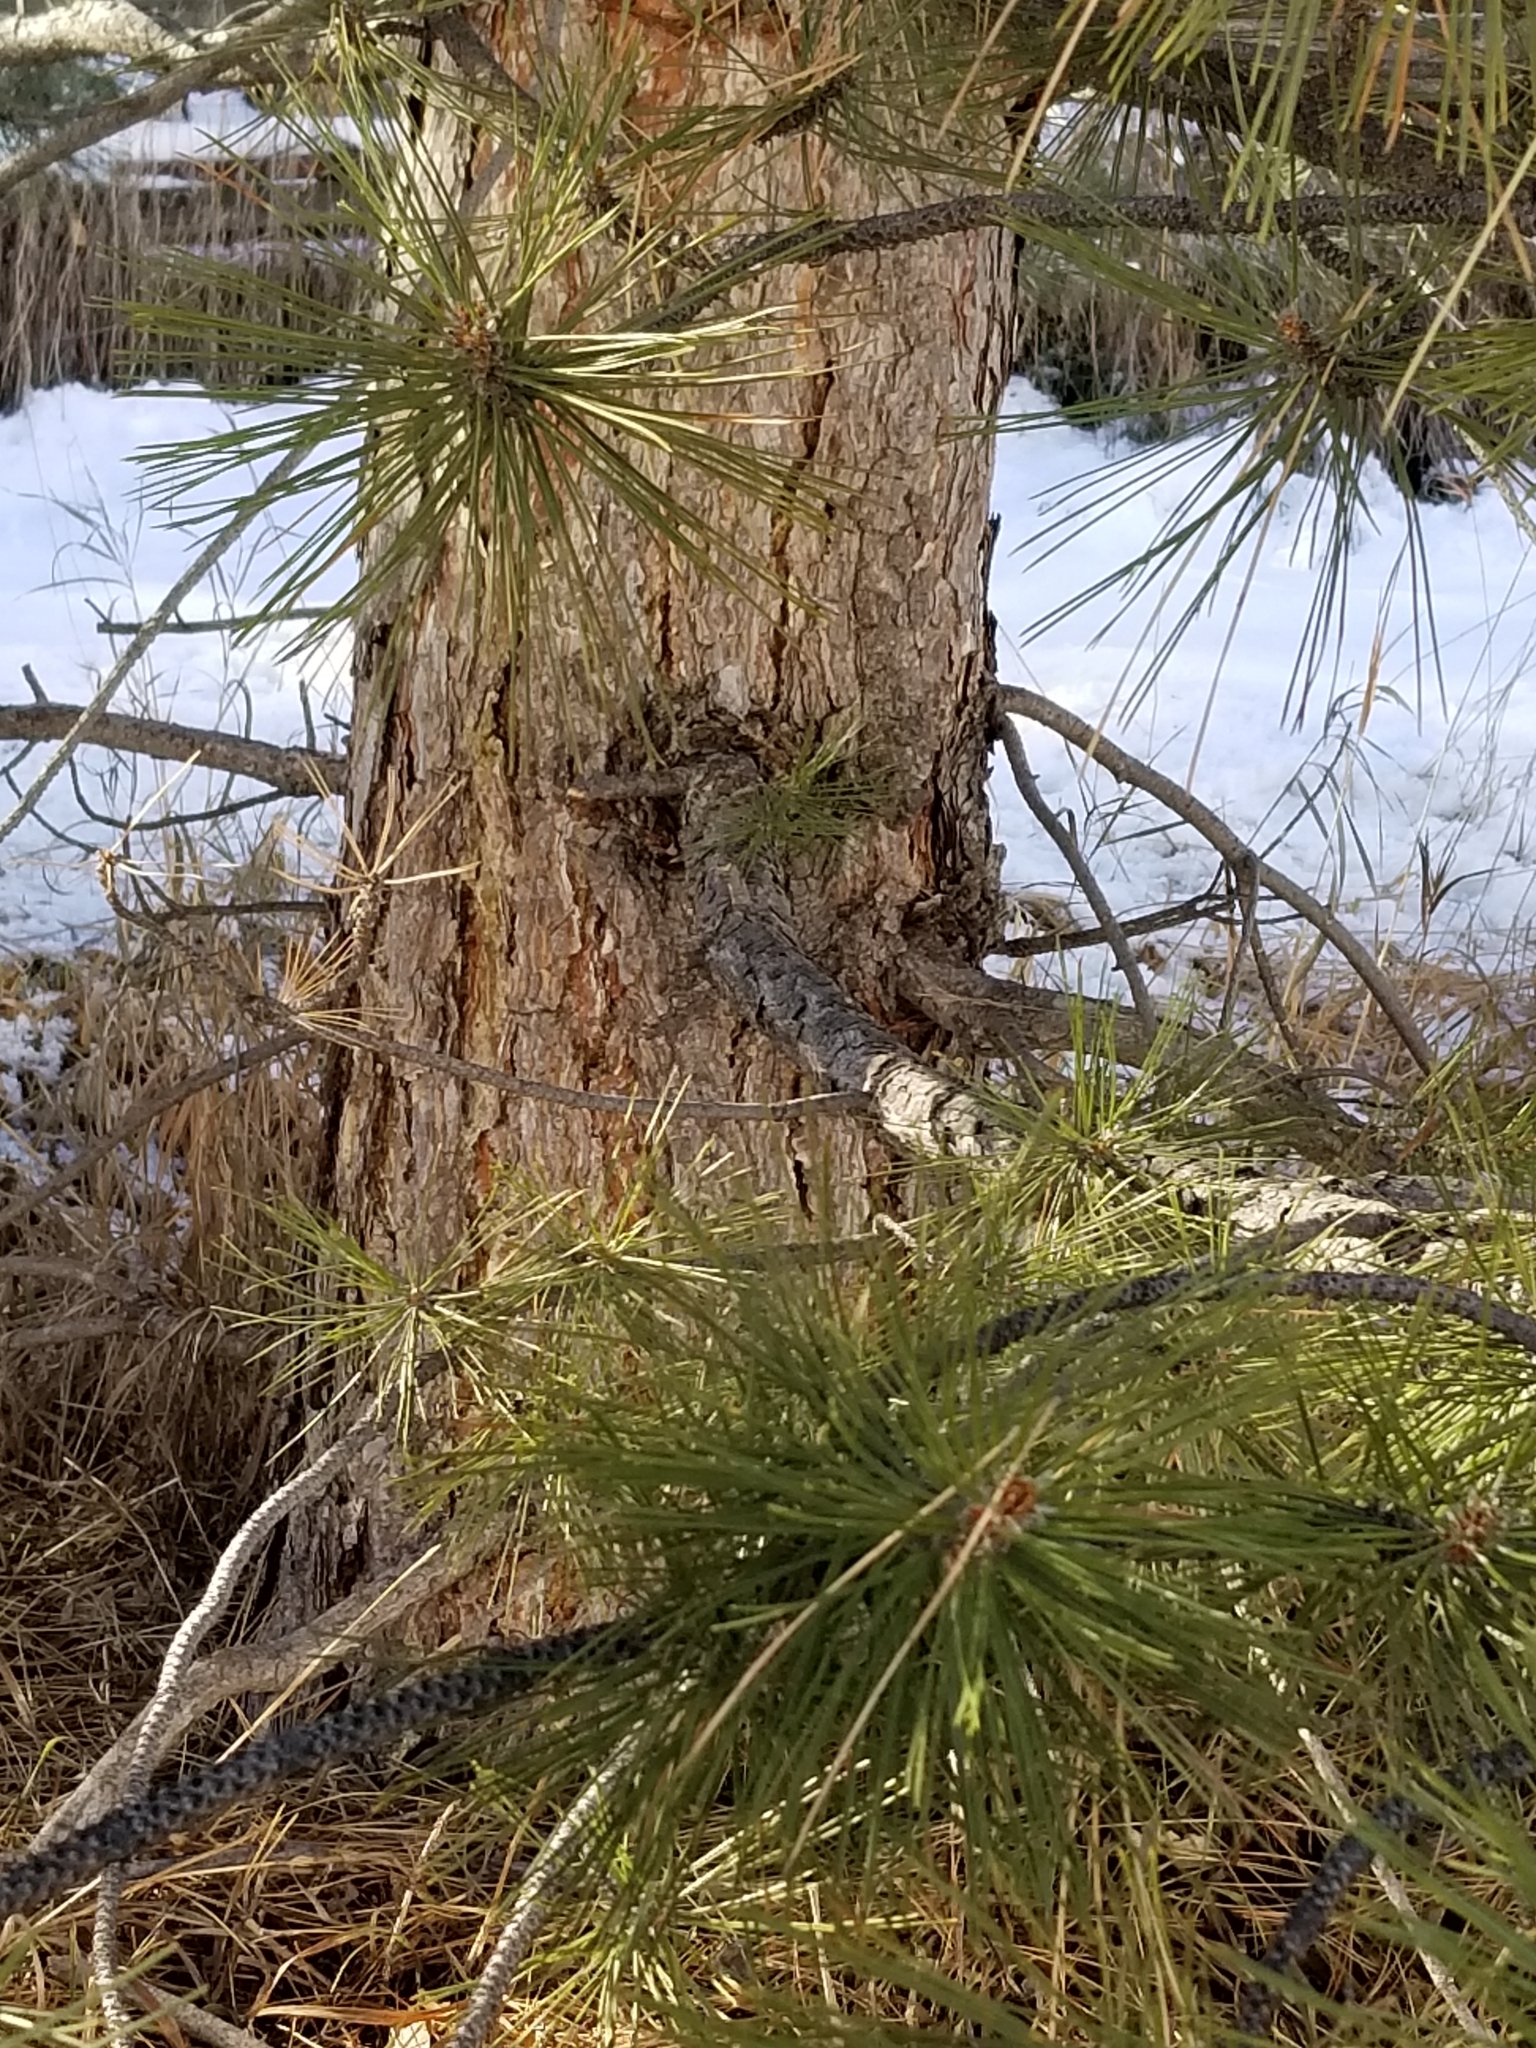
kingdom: Plantae
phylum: Tracheophyta
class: Pinopsida
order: Pinales
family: Pinaceae
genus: Pinus
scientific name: Pinus ponderosa
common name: Western yellow-pine
